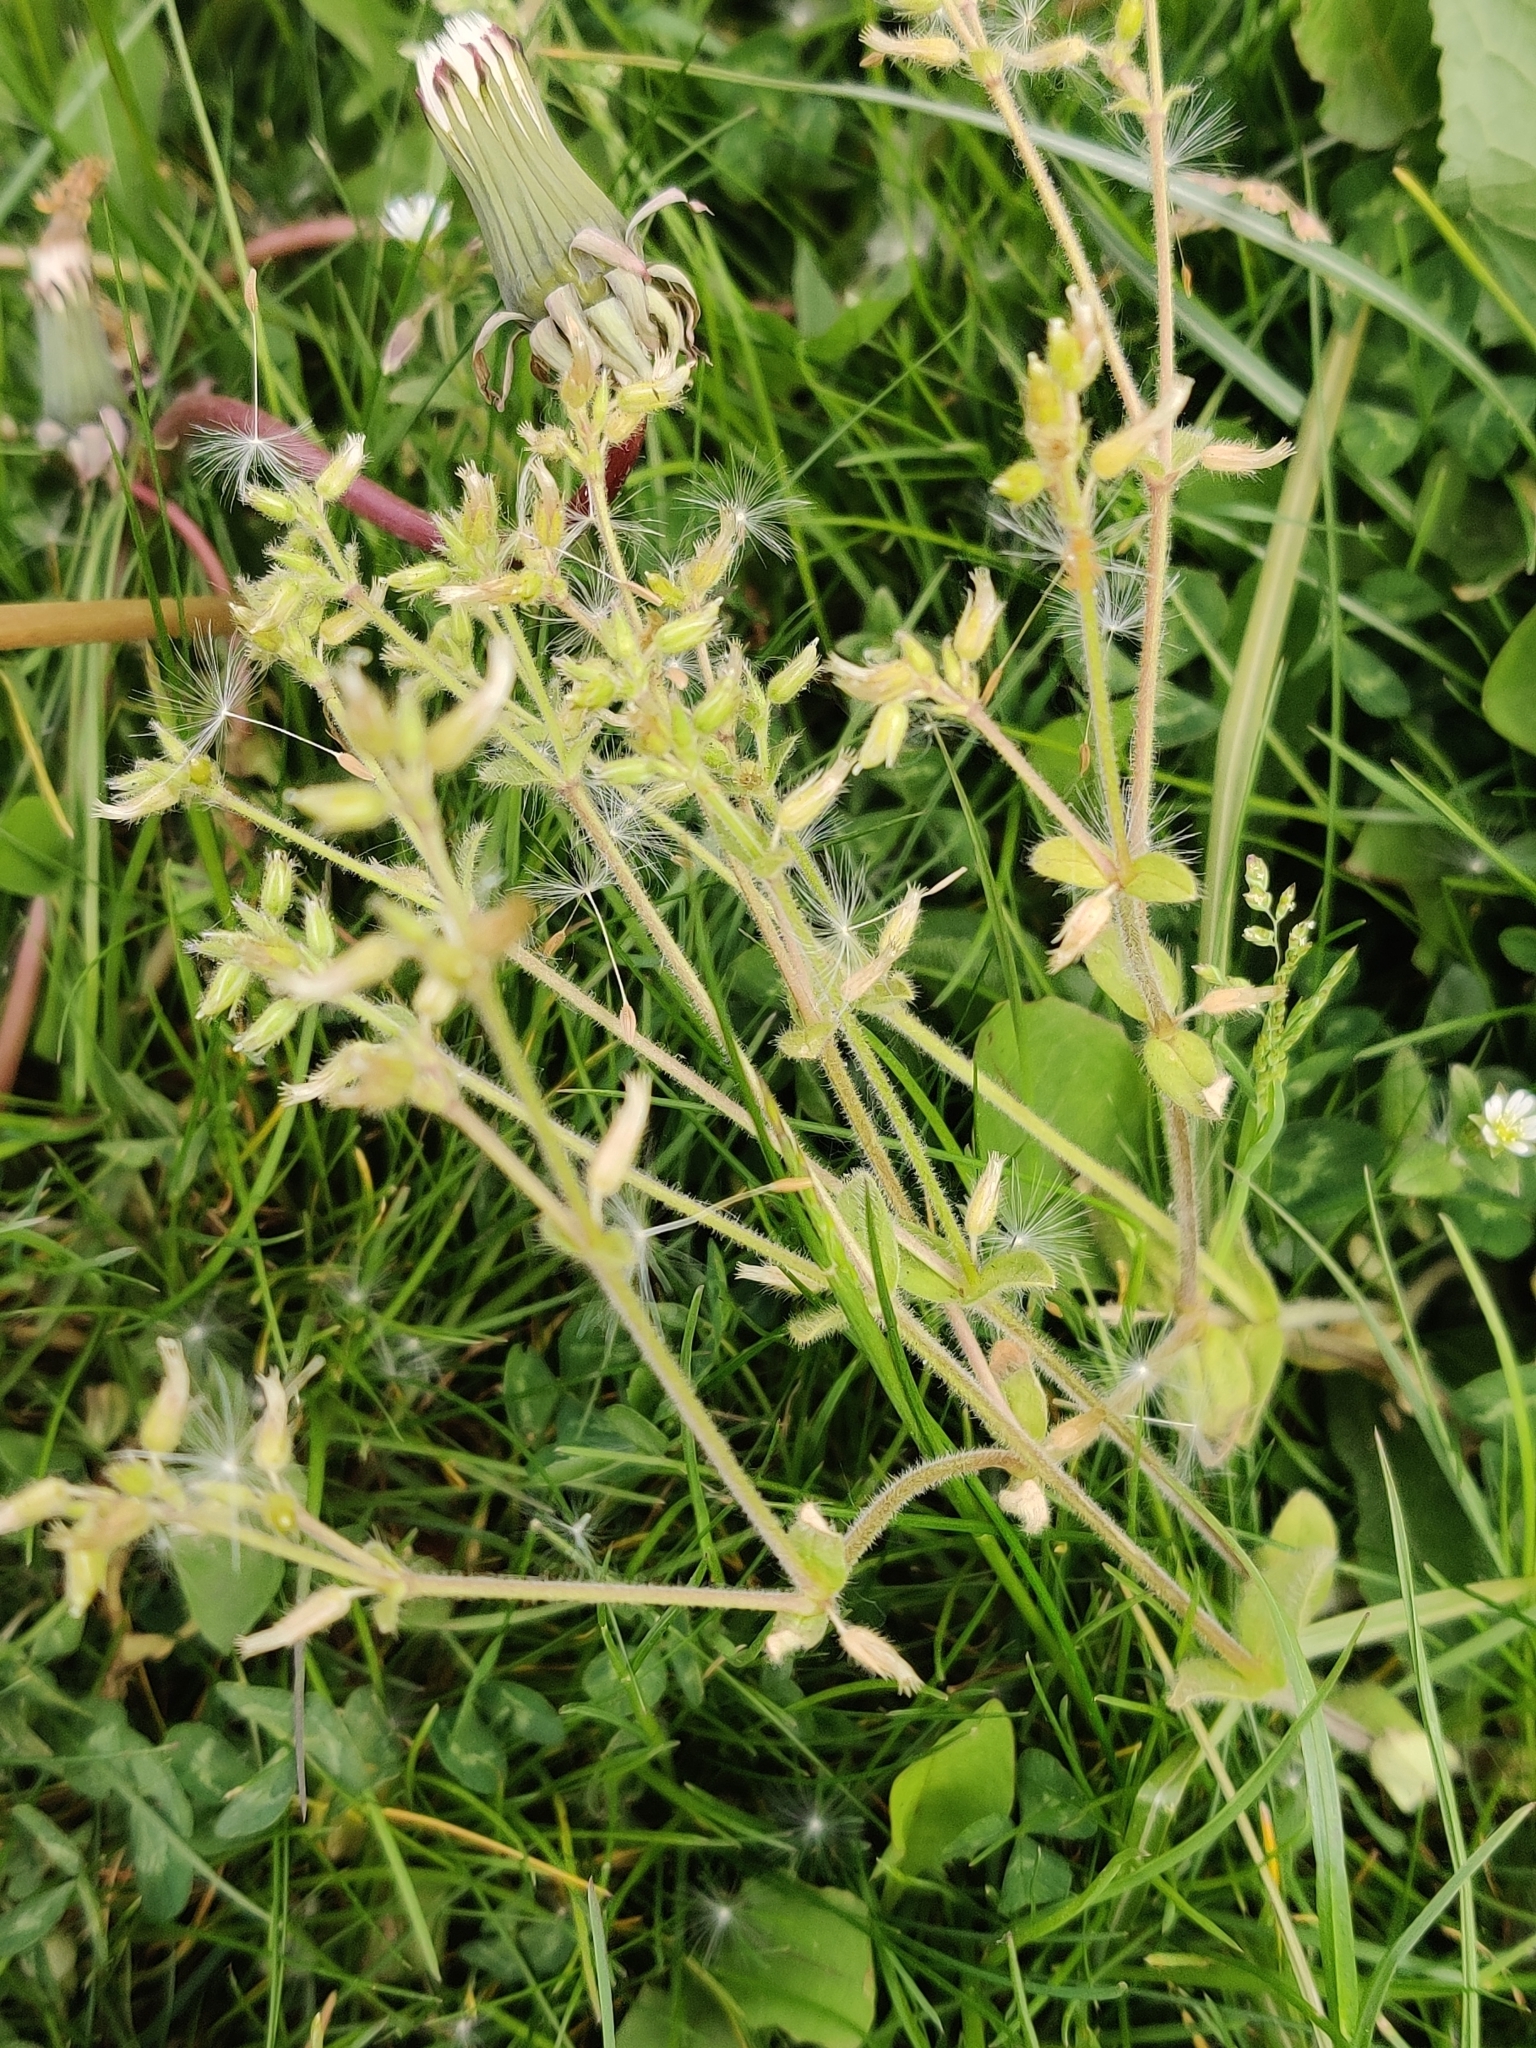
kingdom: Plantae
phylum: Tracheophyta
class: Magnoliopsida
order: Caryophyllales
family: Caryophyllaceae
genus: Cerastium
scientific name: Cerastium glomeratum
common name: Sticky chickweed
